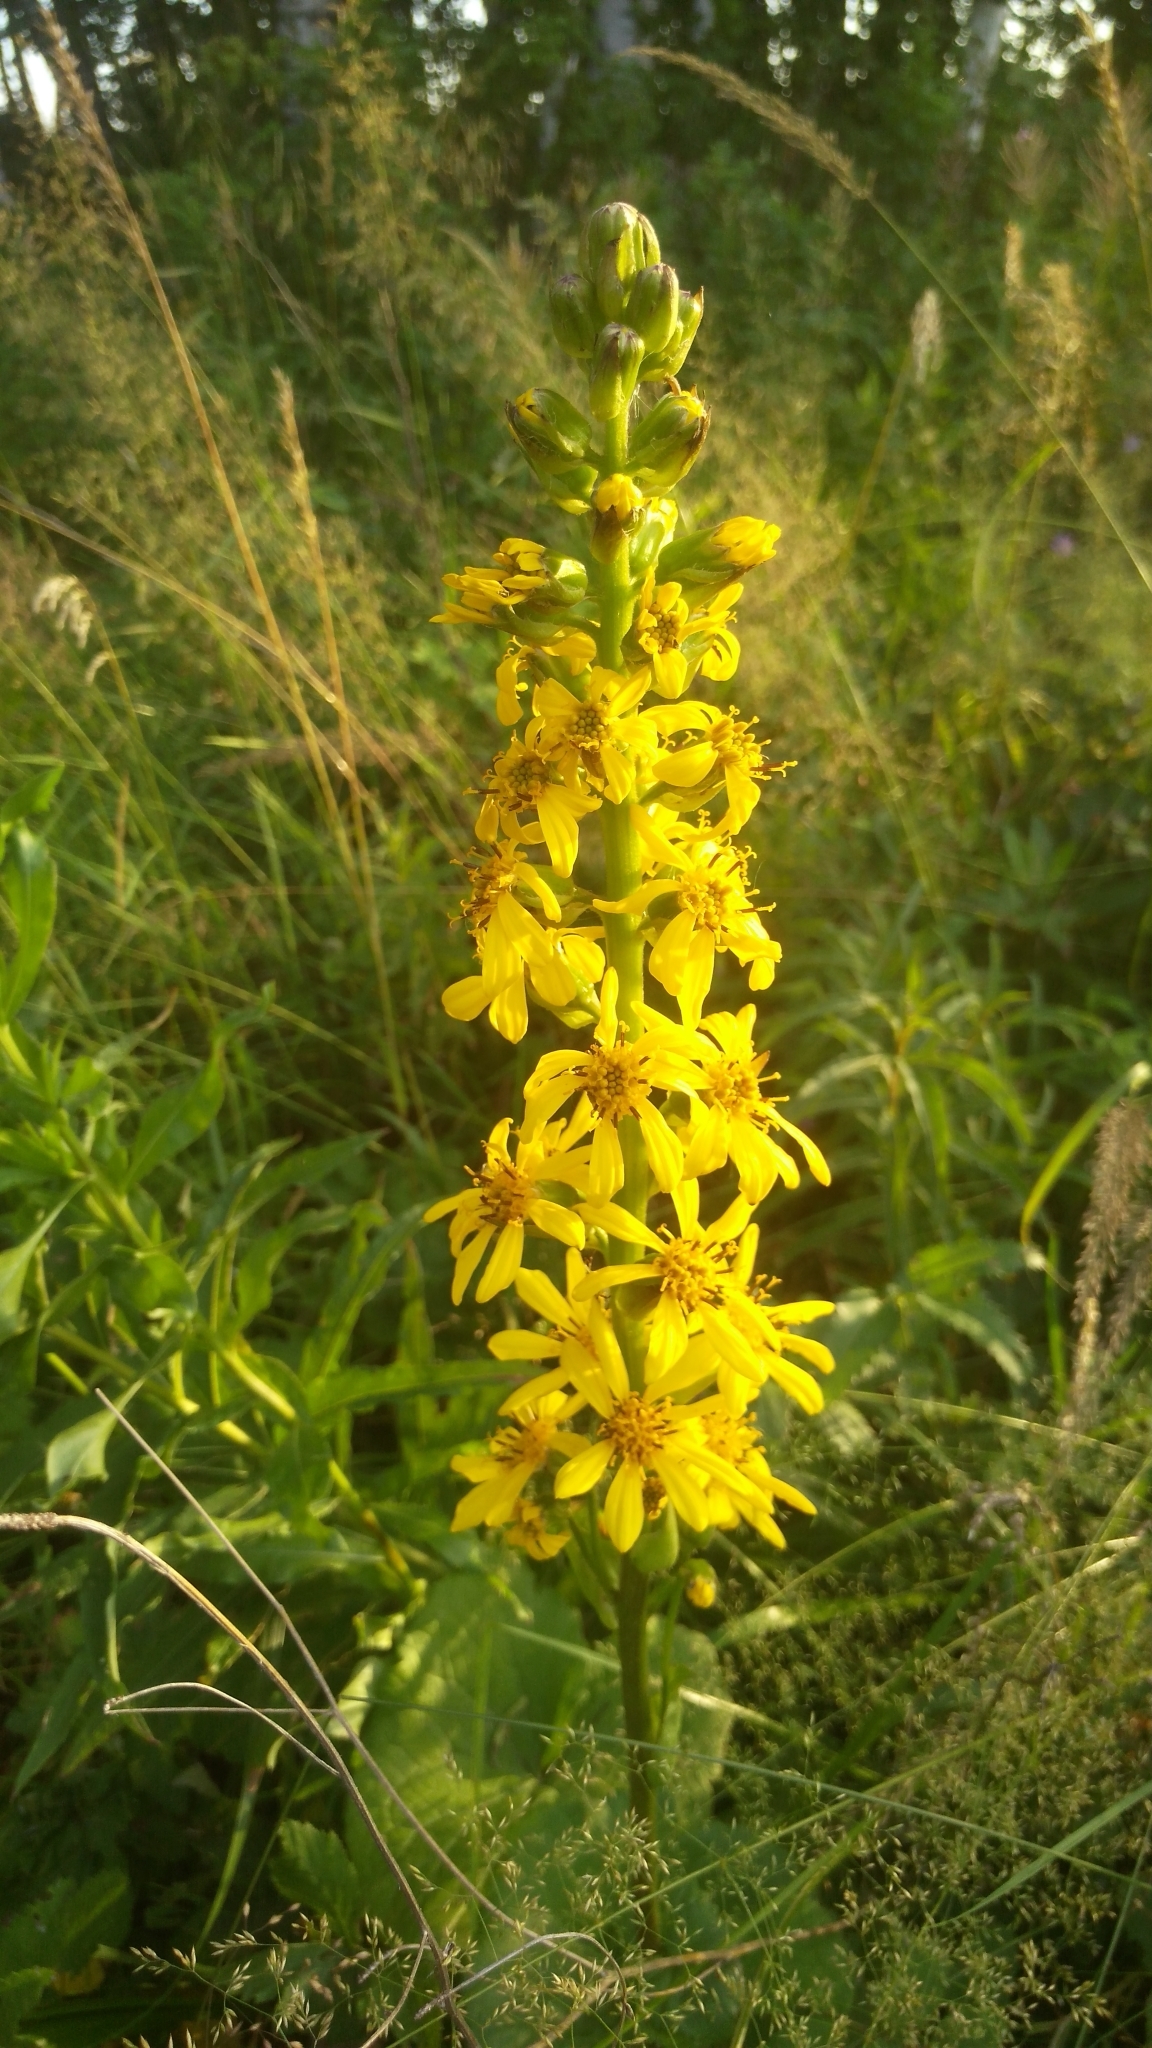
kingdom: Plantae
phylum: Tracheophyta
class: Magnoliopsida
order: Asterales
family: Asteraceae
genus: Ligularia
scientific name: Ligularia sibirica
